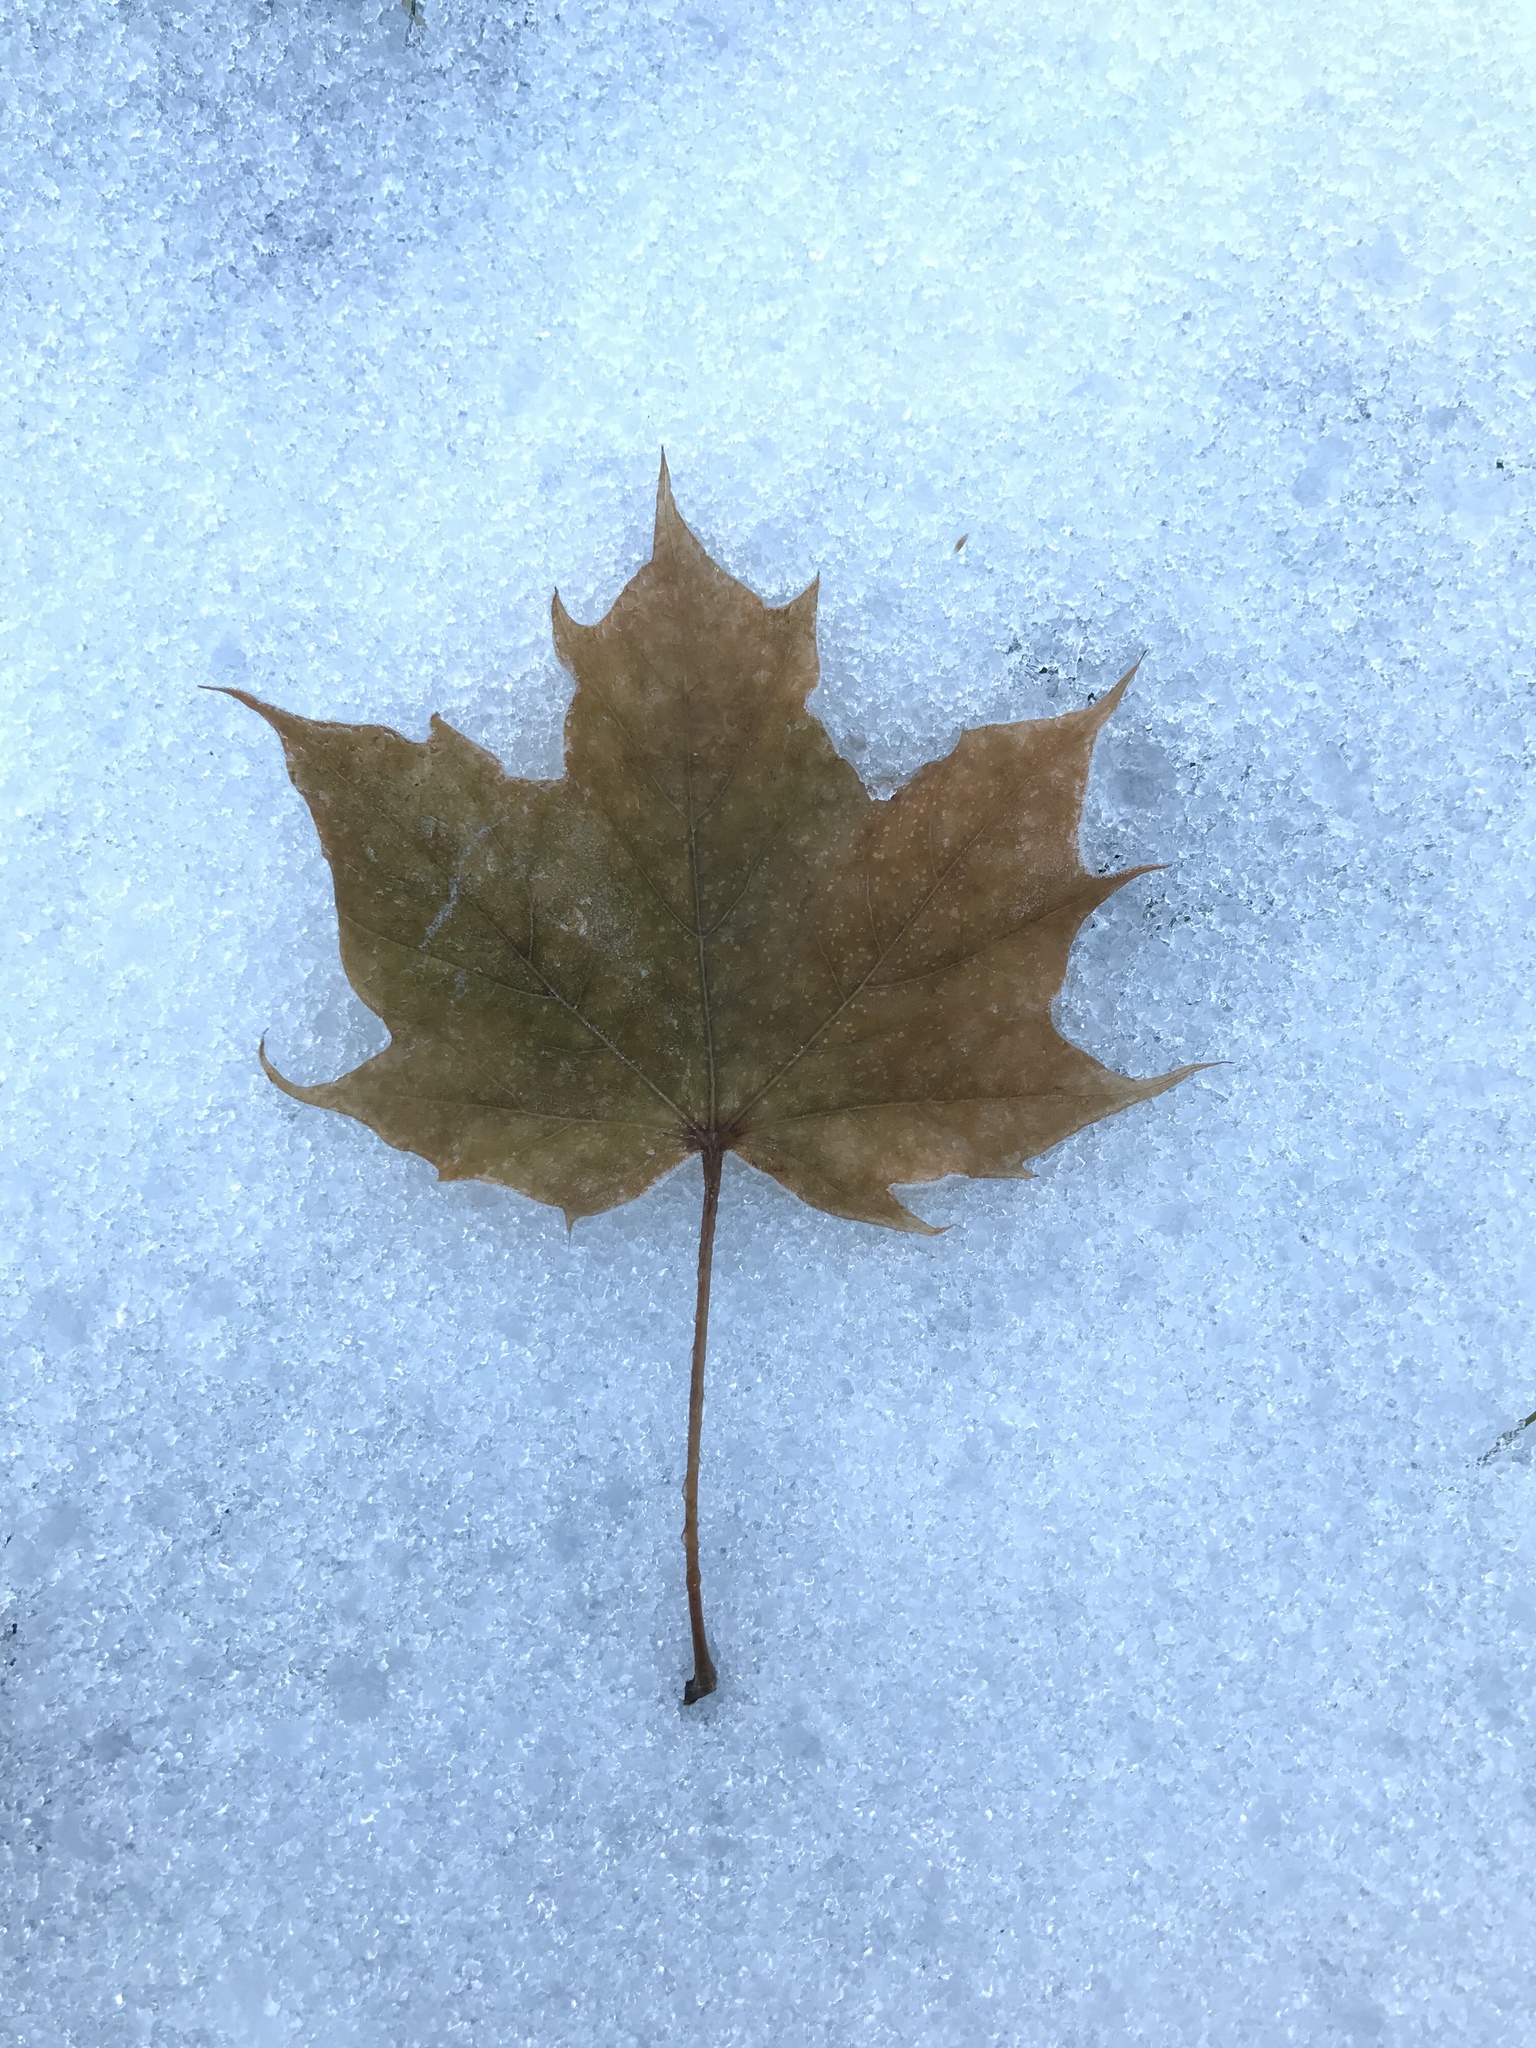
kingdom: Plantae
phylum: Tracheophyta
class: Magnoliopsida
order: Sapindales
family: Sapindaceae
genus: Acer
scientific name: Acer platanoides
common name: Norway maple
